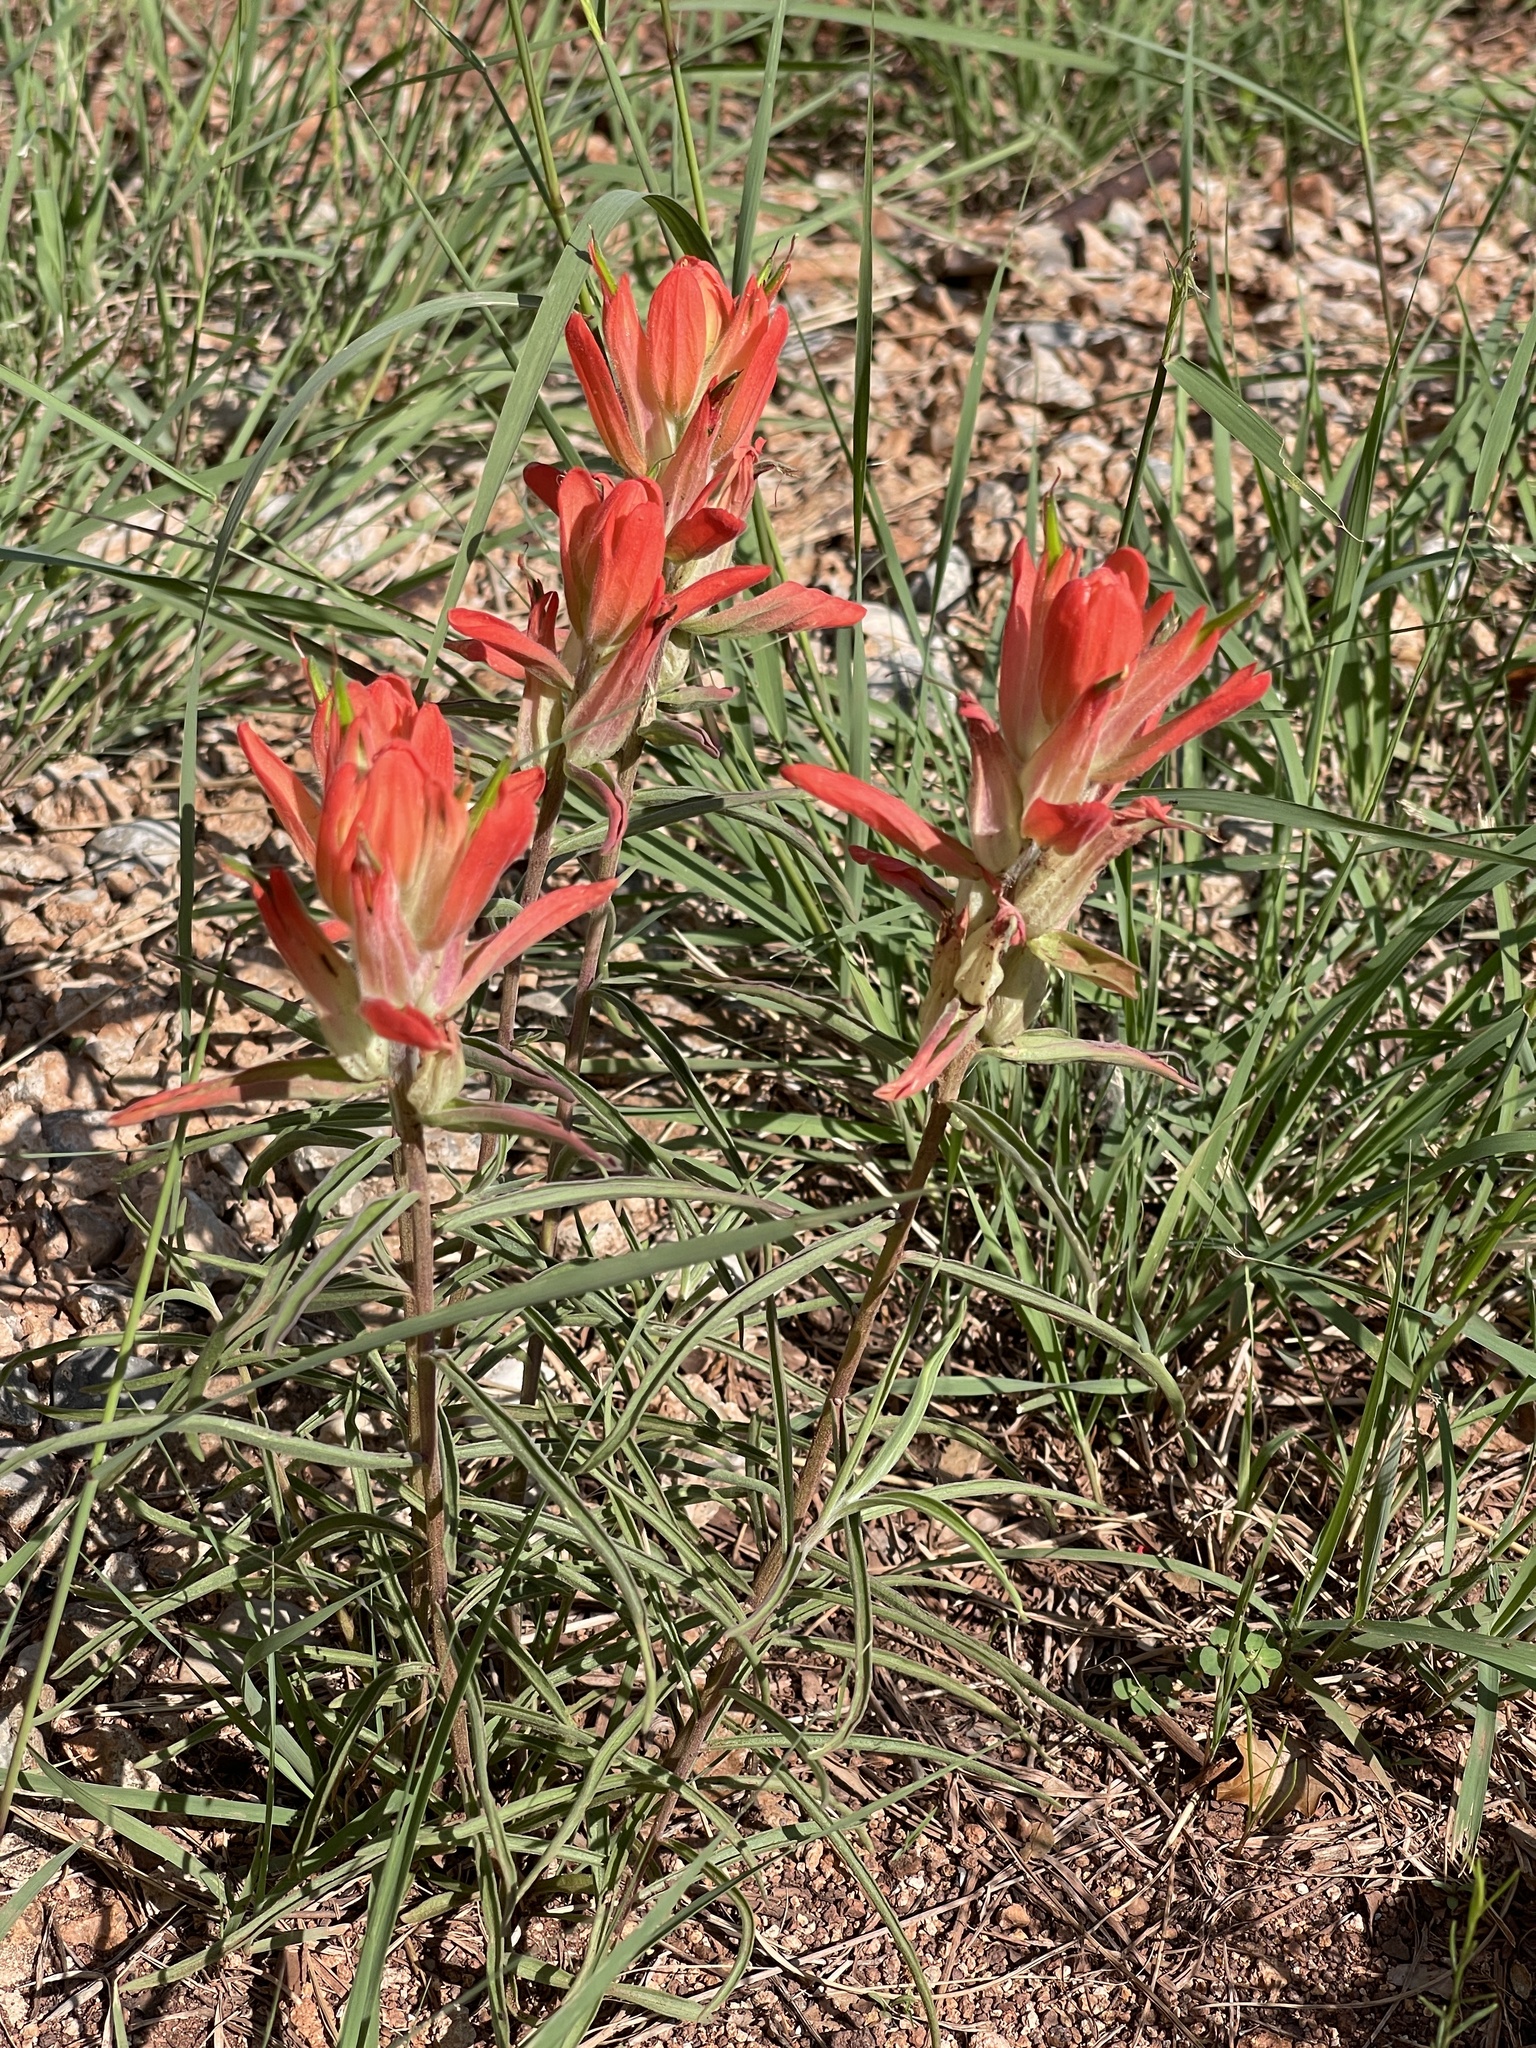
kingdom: Plantae
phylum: Tracheophyta
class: Magnoliopsida
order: Lamiales
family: Orobanchaceae
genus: Castilleja
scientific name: Castilleja integra
